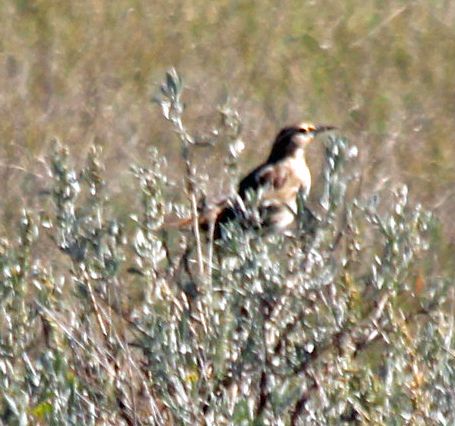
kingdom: Animalia
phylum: Chordata
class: Aves
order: Passeriformes
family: Icteridae
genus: Sturnella
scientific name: Sturnella neglecta
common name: Western meadowlark
